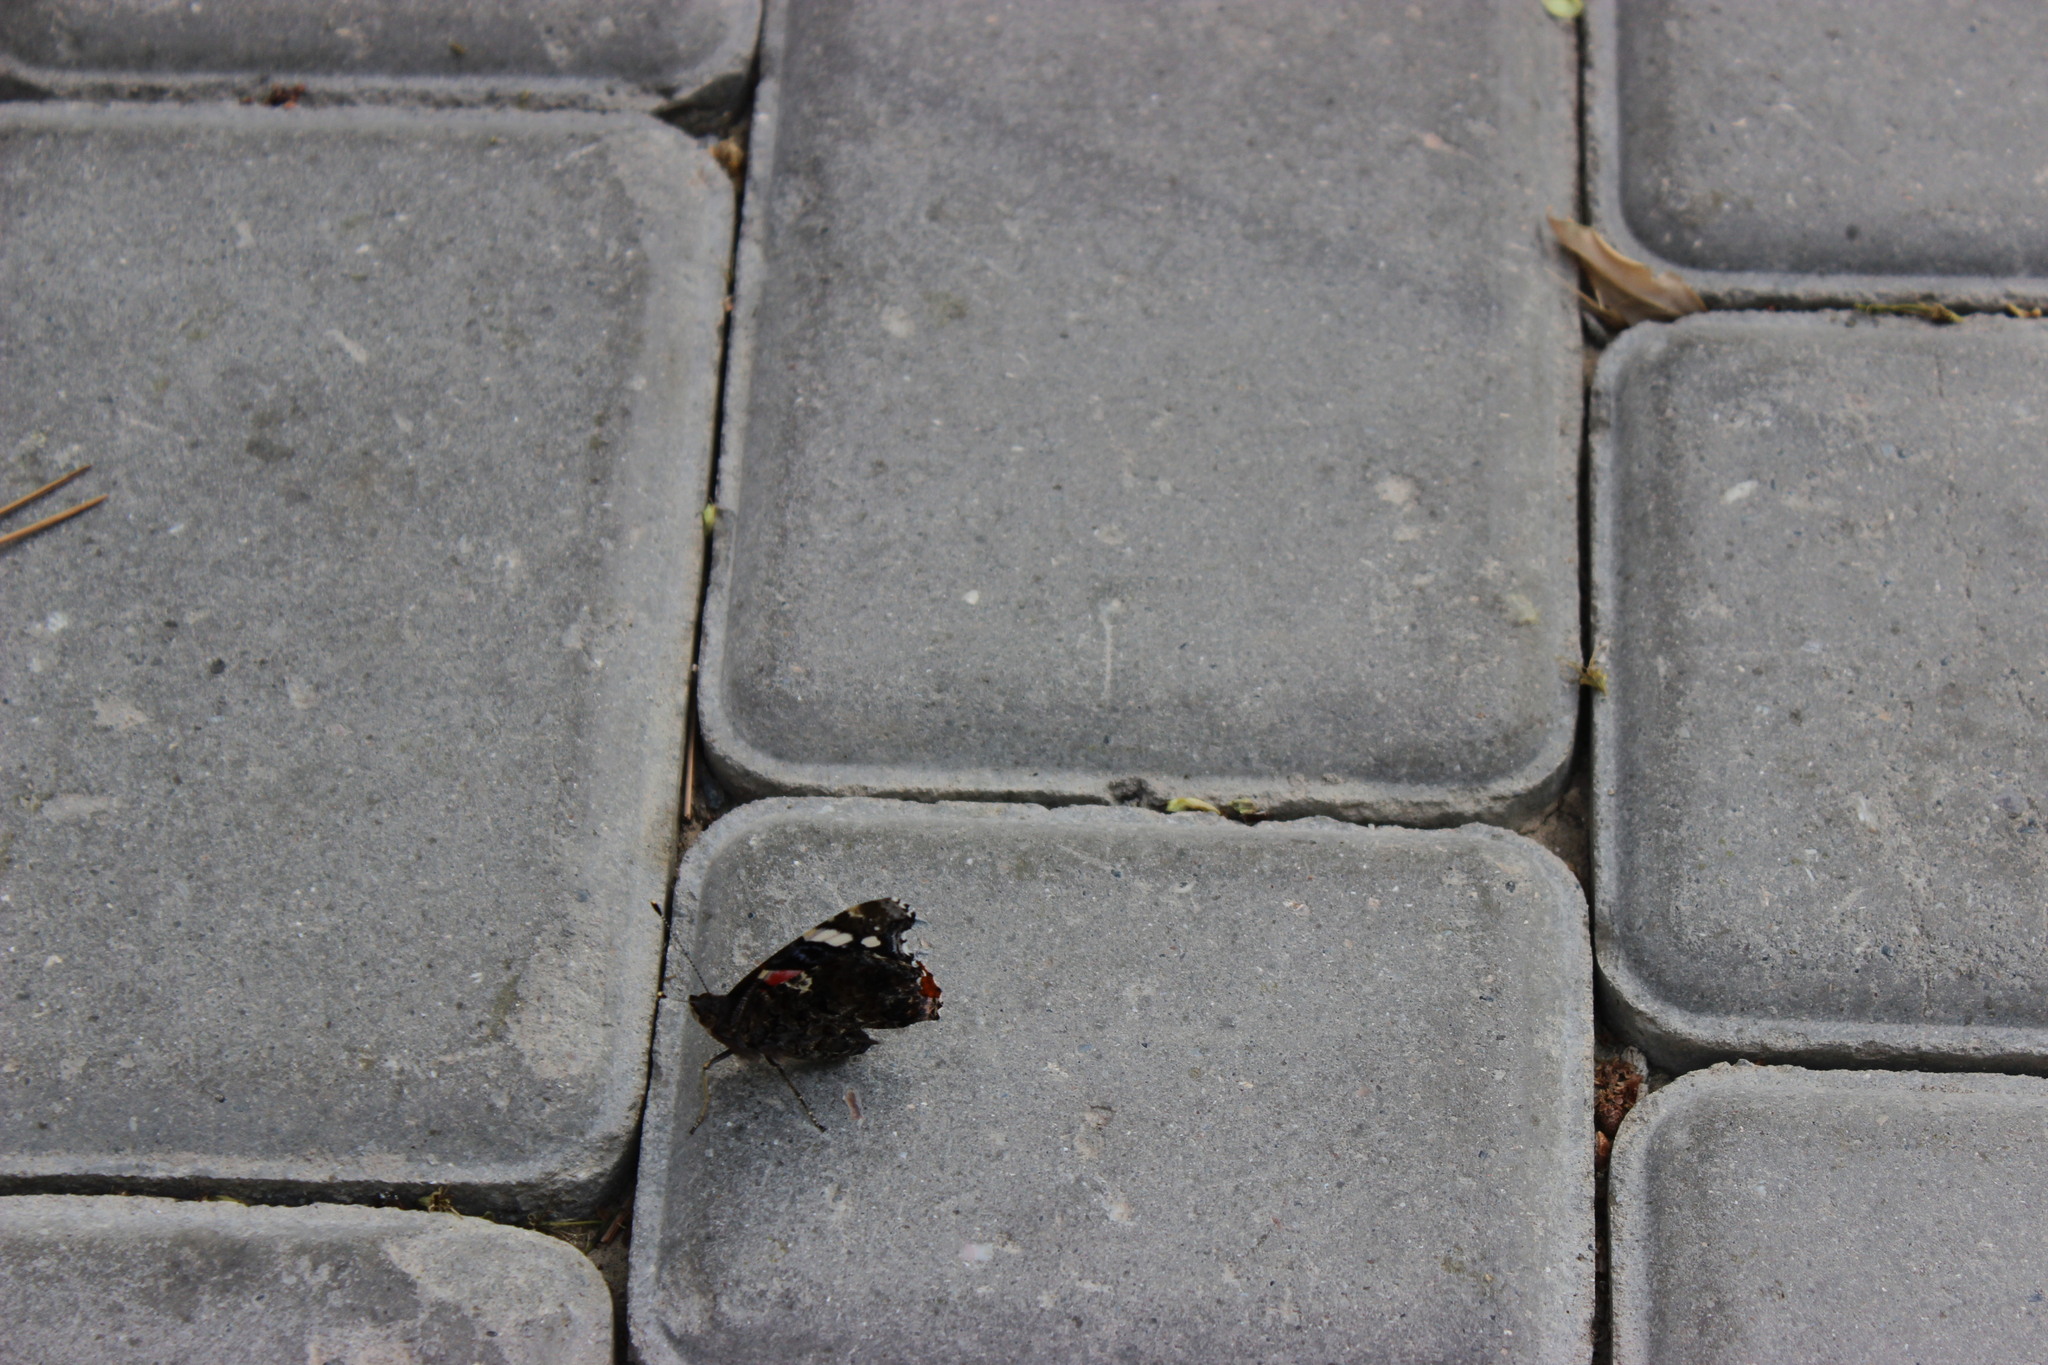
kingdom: Animalia
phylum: Arthropoda
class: Insecta
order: Lepidoptera
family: Nymphalidae
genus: Vanessa
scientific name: Vanessa atalanta
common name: Red admiral
